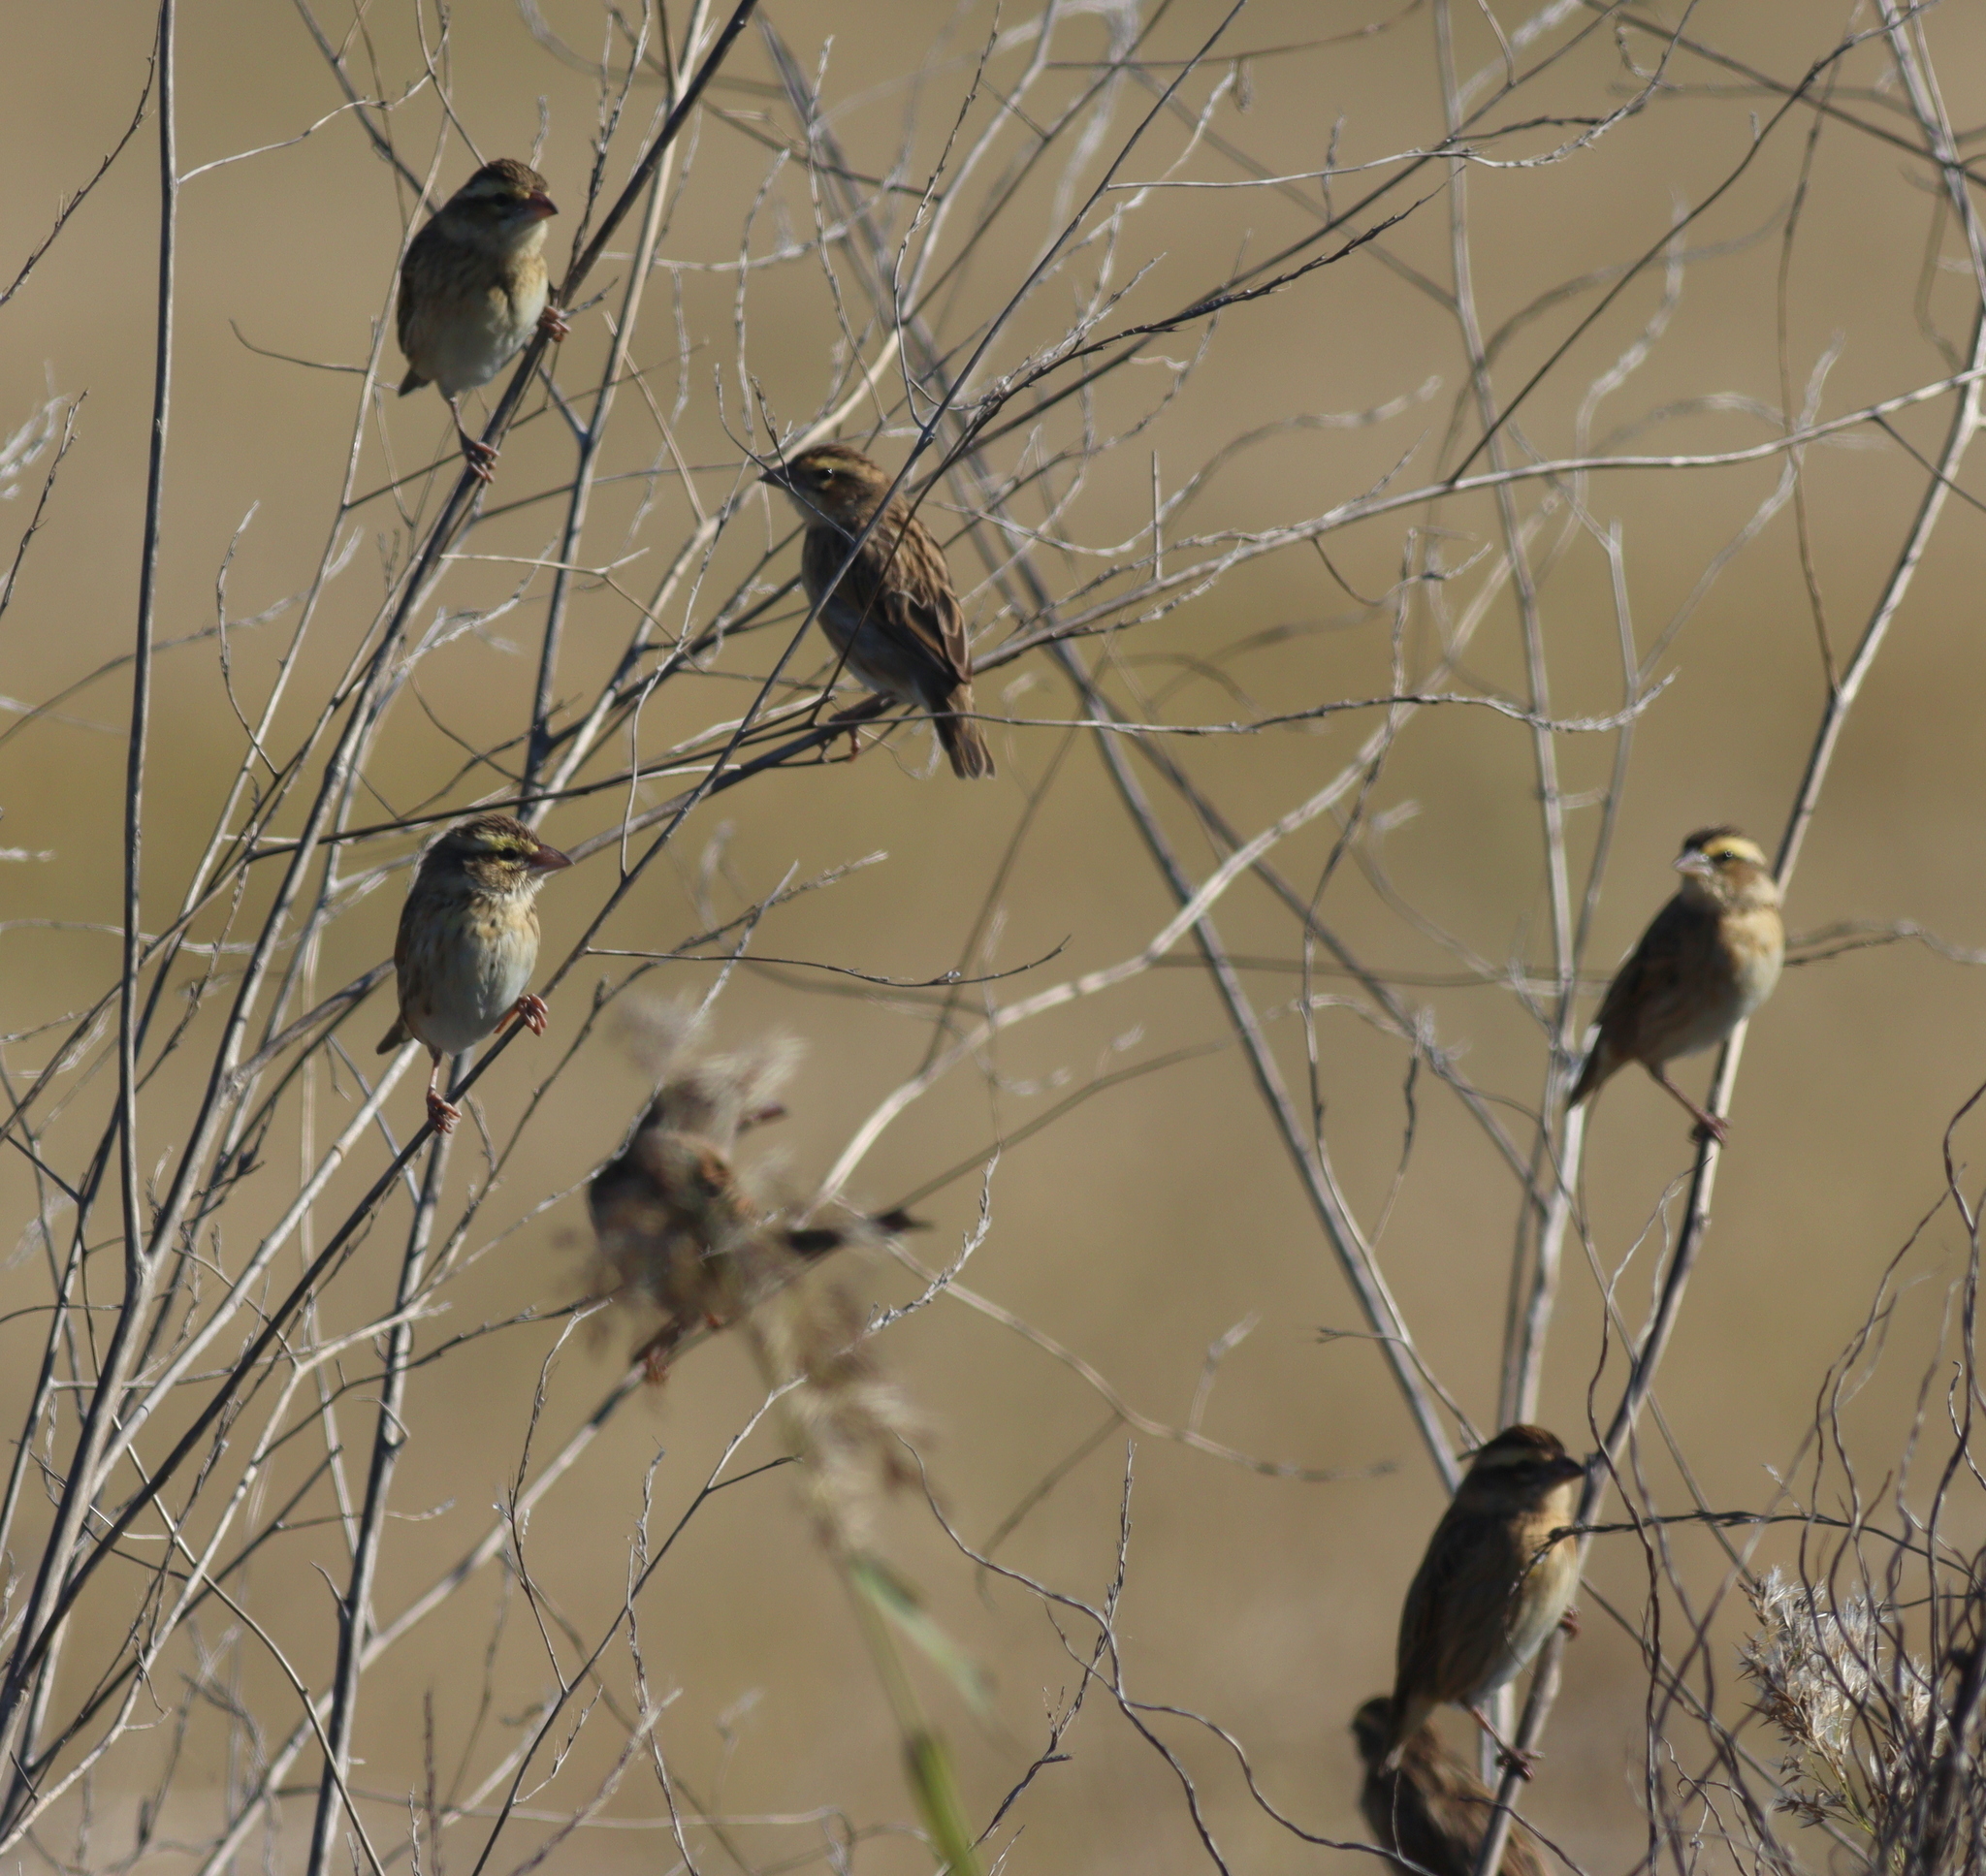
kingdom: Animalia
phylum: Chordata
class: Aves
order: Passeriformes
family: Ploceidae
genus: Euplectes
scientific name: Euplectes afer
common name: Yellow-crowned bishop
